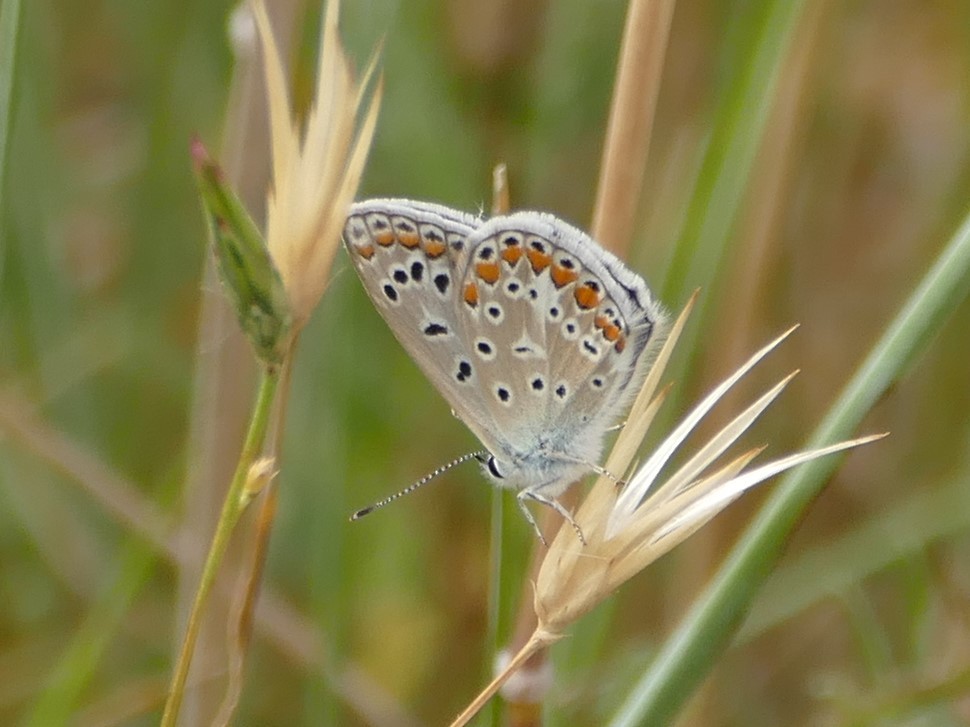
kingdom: Animalia
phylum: Arthropoda
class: Insecta
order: Lepidoptera
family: Lycaenidae
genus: Polyommatus
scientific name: Polyommatus icarus
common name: Common blue
